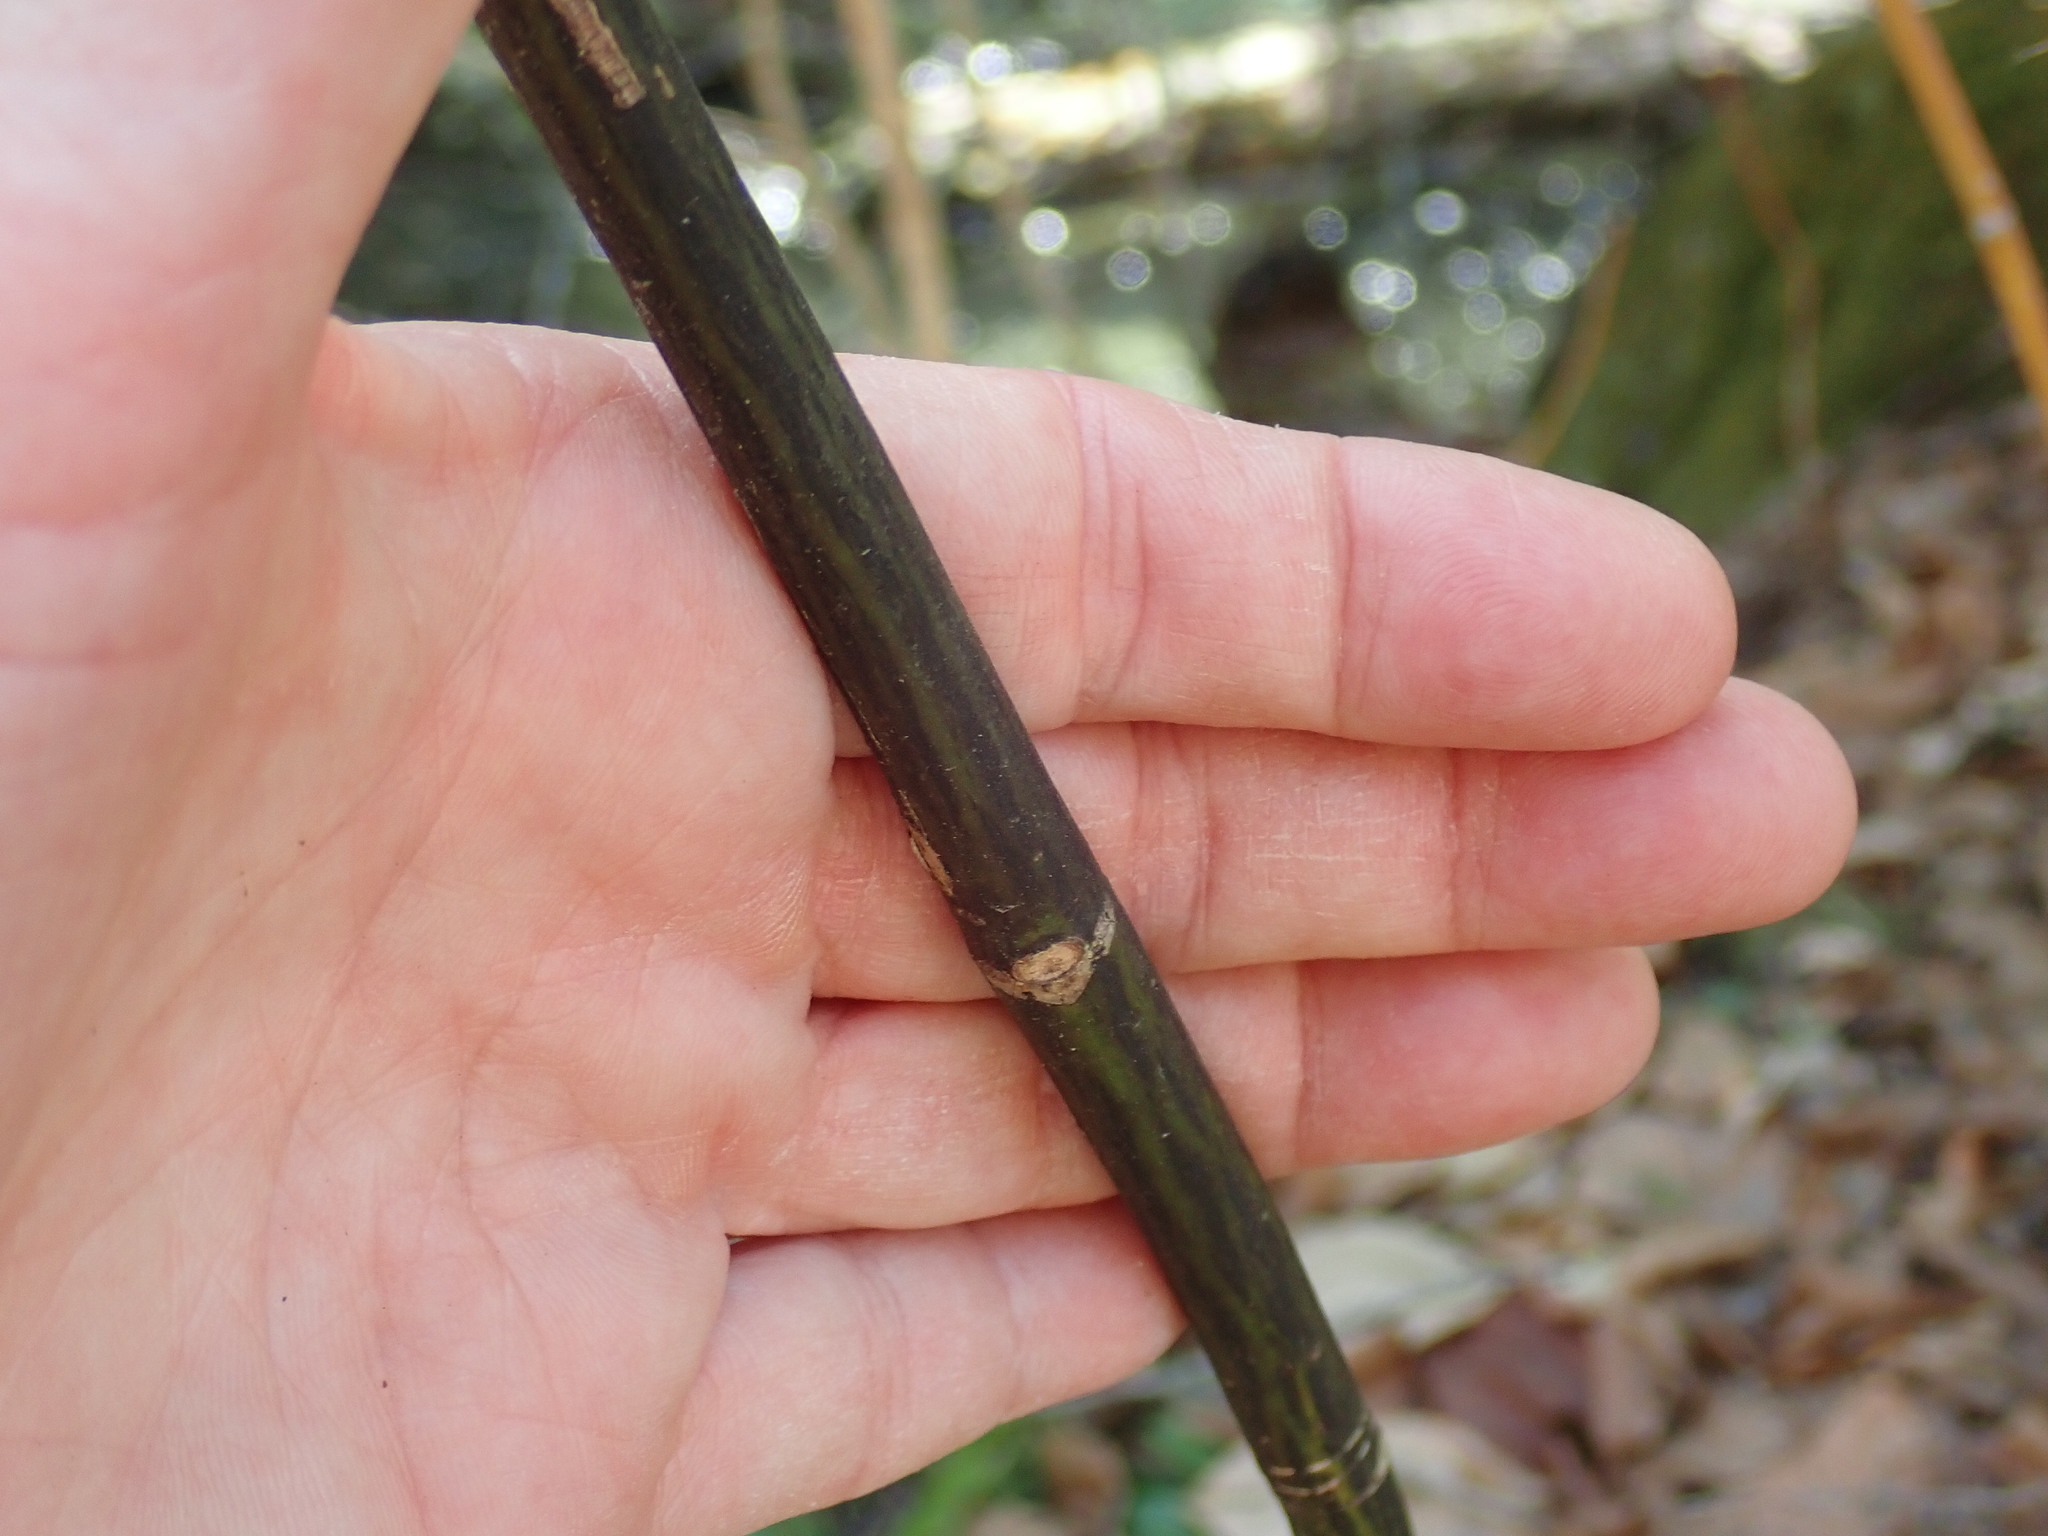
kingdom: Plantae
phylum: Tracheophyta
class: Magnoliopsida
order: Sapindales
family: Sapindaceae
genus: Acer
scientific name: Acer pensylvanicum
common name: Moosewood
